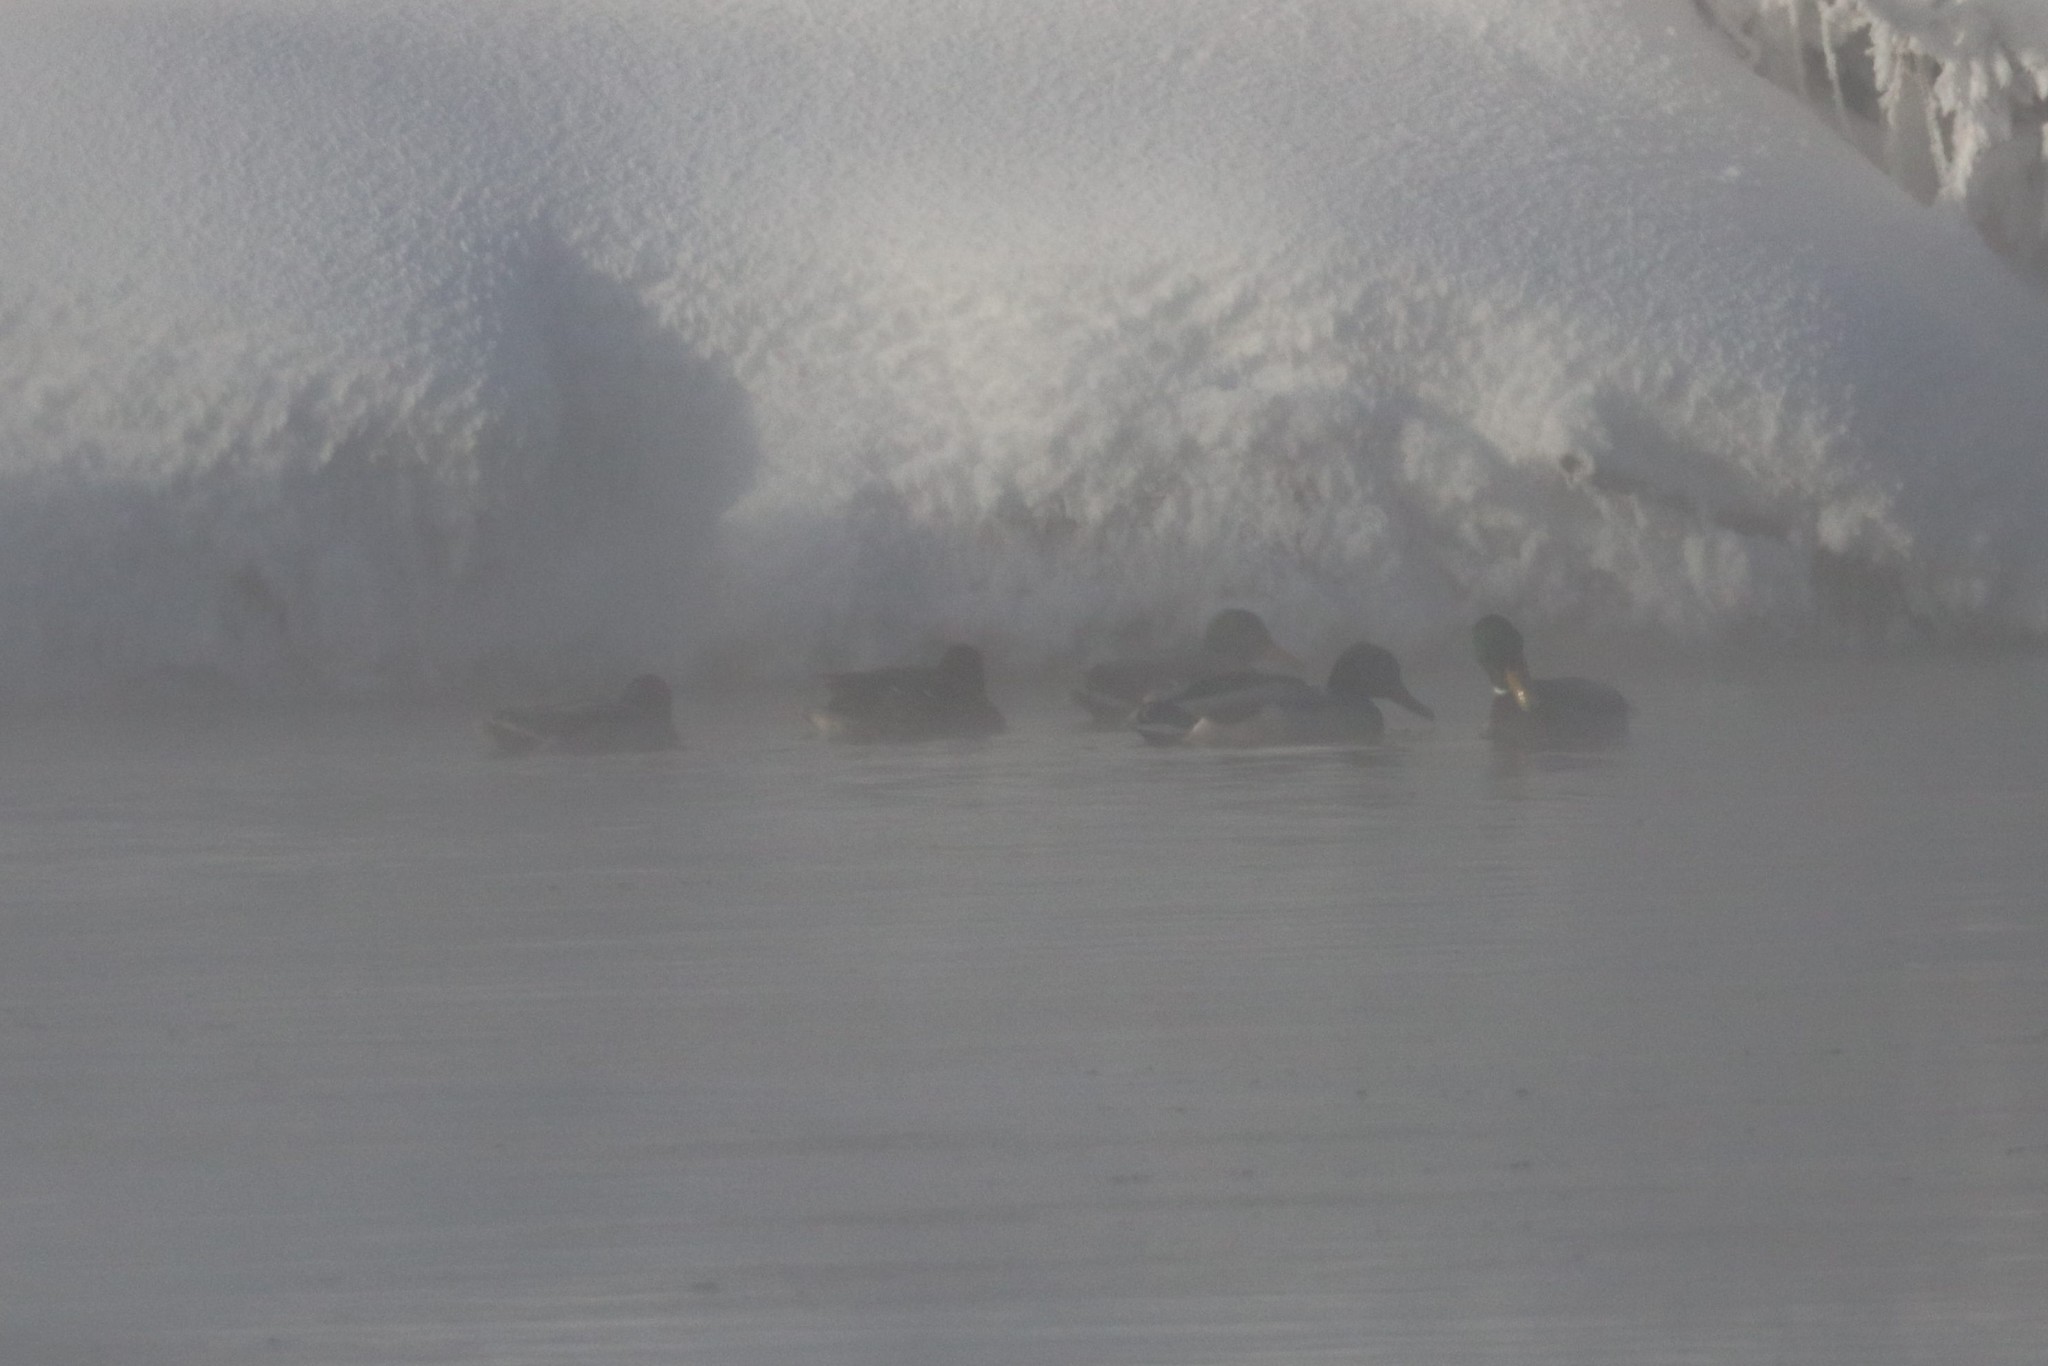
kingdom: Animalia
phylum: Chordata
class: Aves
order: Anseriformes
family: Anatidae
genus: Anas
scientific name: Anas platyrhynchos
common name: Mallard
